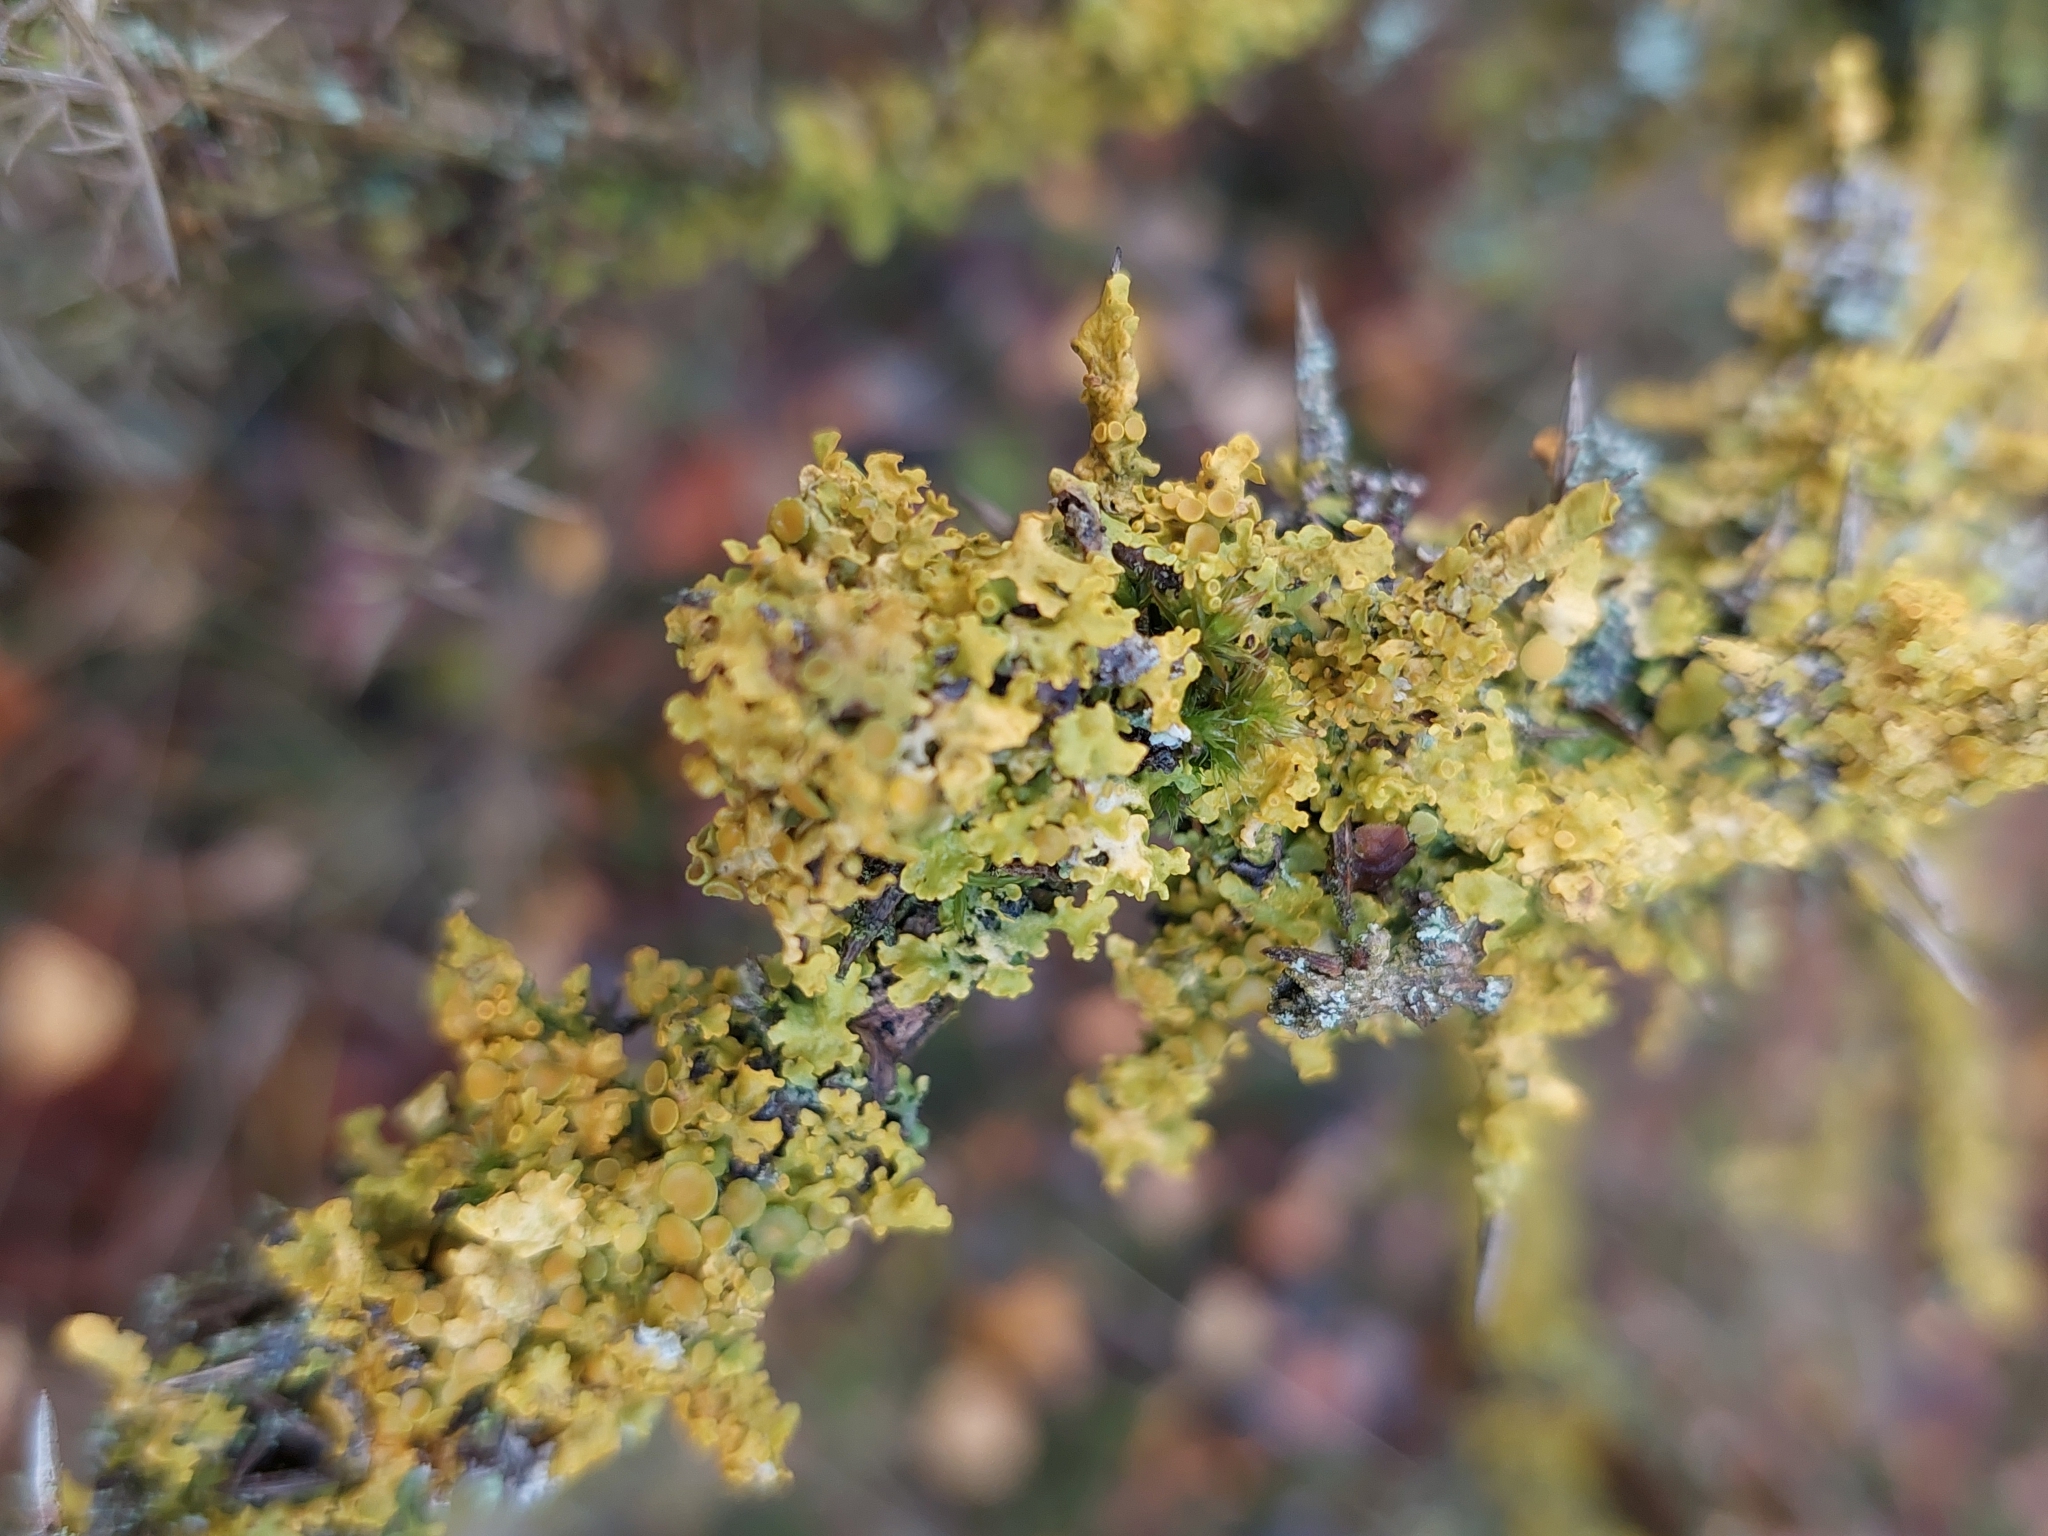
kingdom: Fungi
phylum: Ascomycota
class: Lecanoromycetes
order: Teloschistales
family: Teloschistaceae
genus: Xanthoria
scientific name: Xanthoria parietina
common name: Common orange lichen
